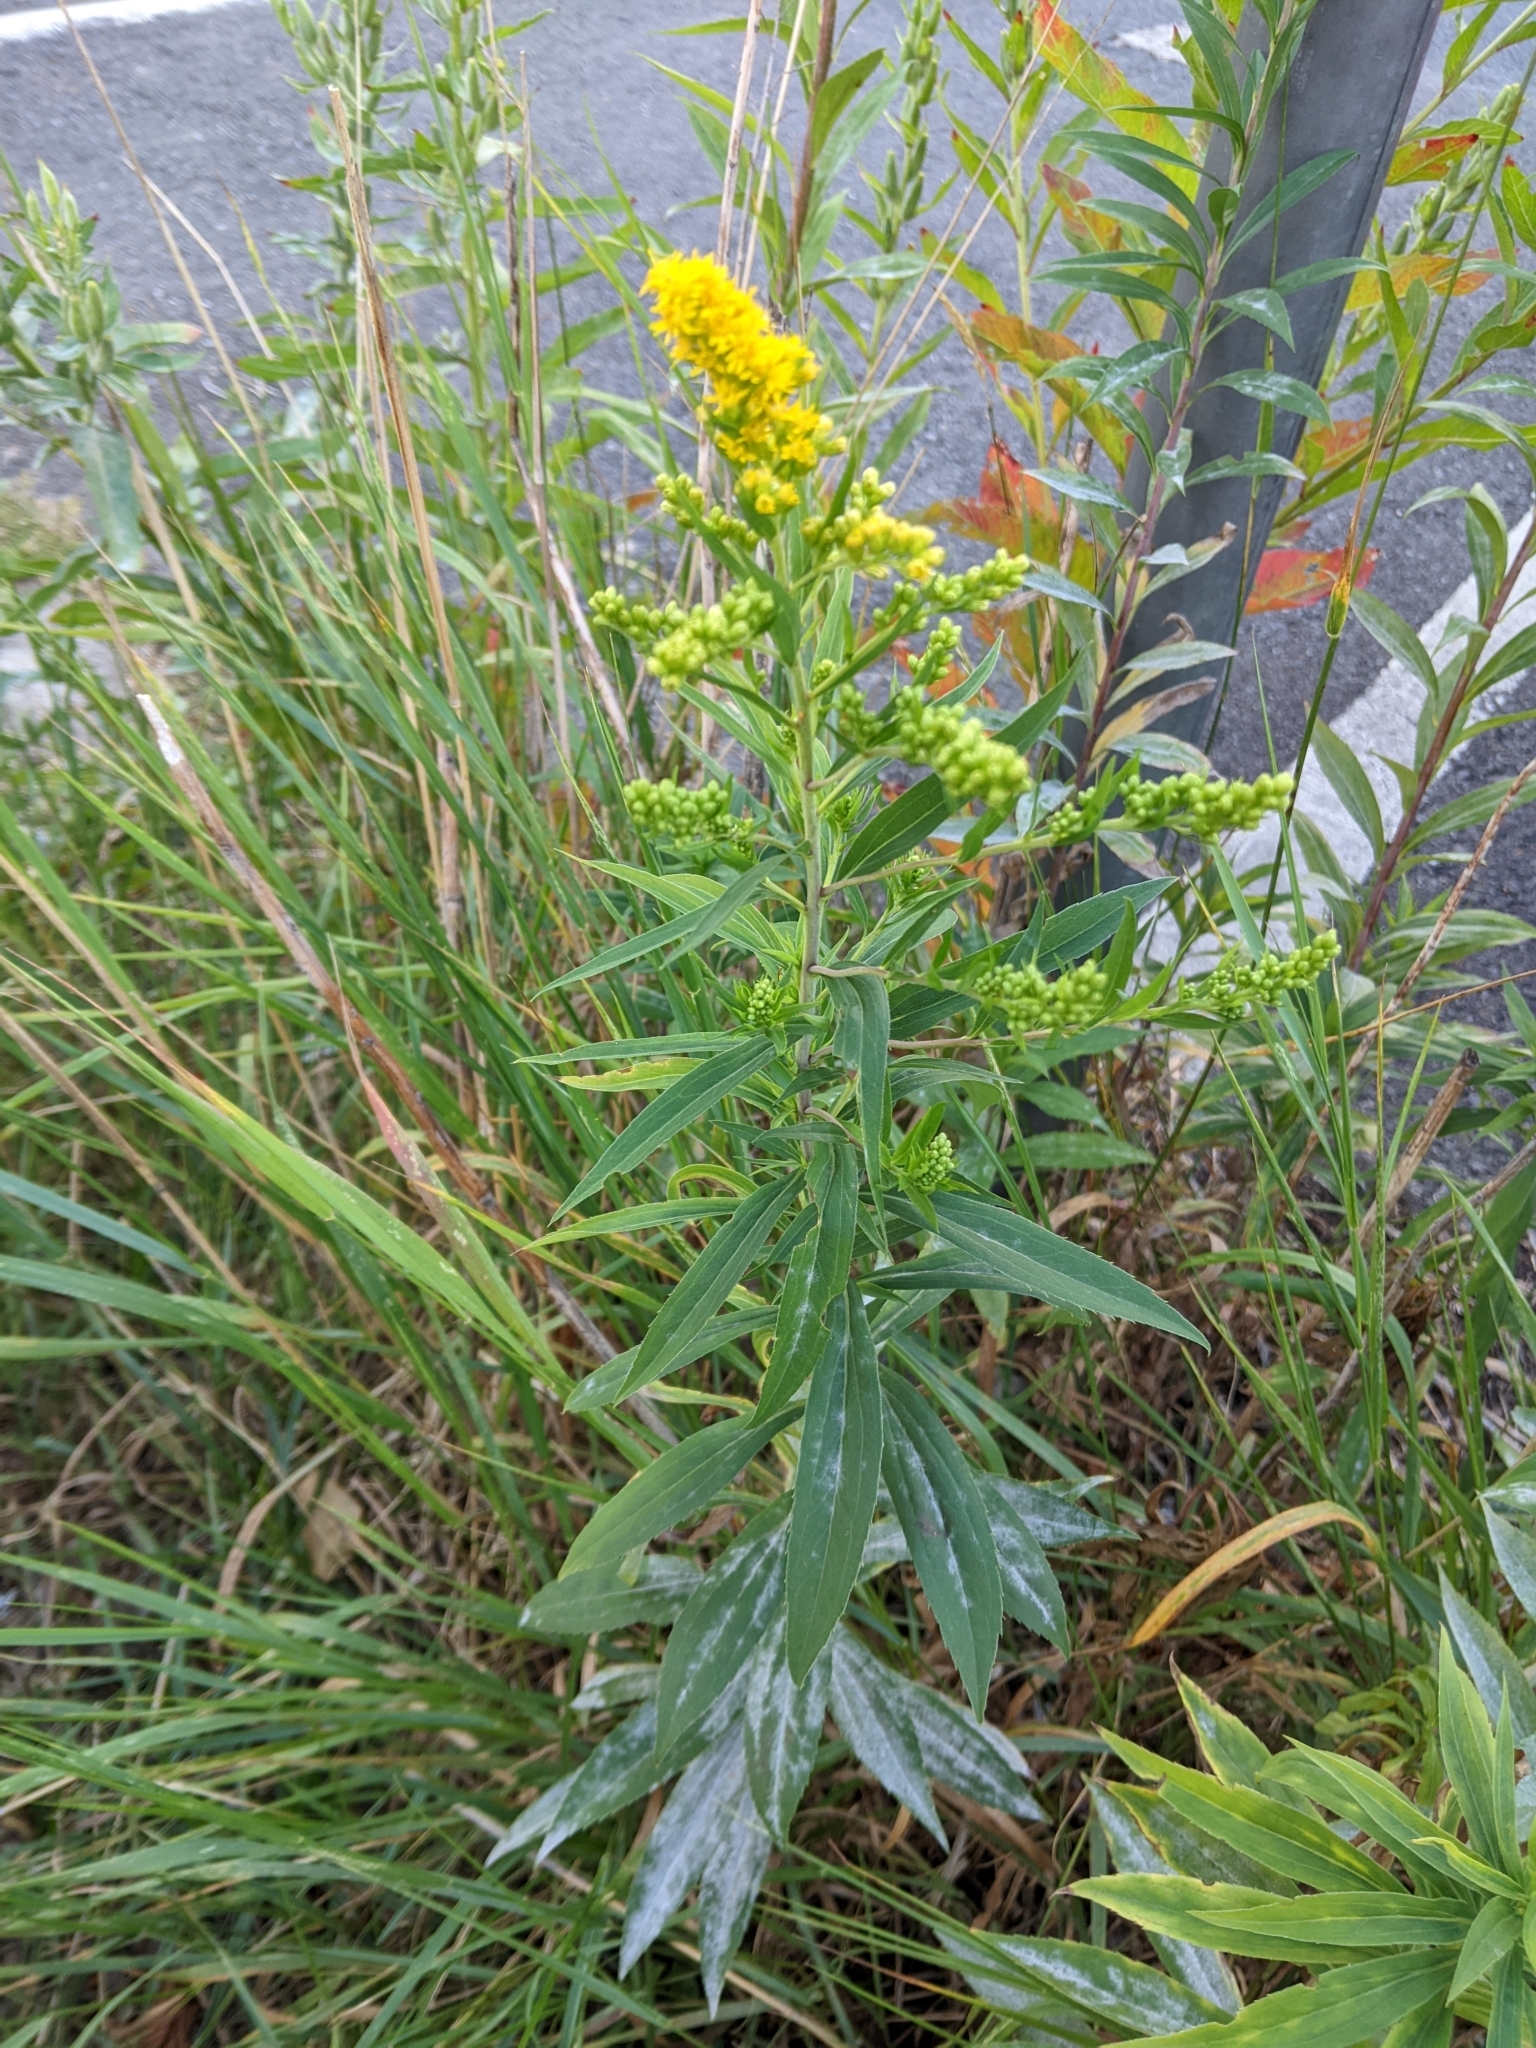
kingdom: Plantae
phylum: Tracheophyta
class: Magnoliopsida
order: Asterales
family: Asteraceae
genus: Solidago
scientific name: Solidago canadensis
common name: Canada goldenrod
